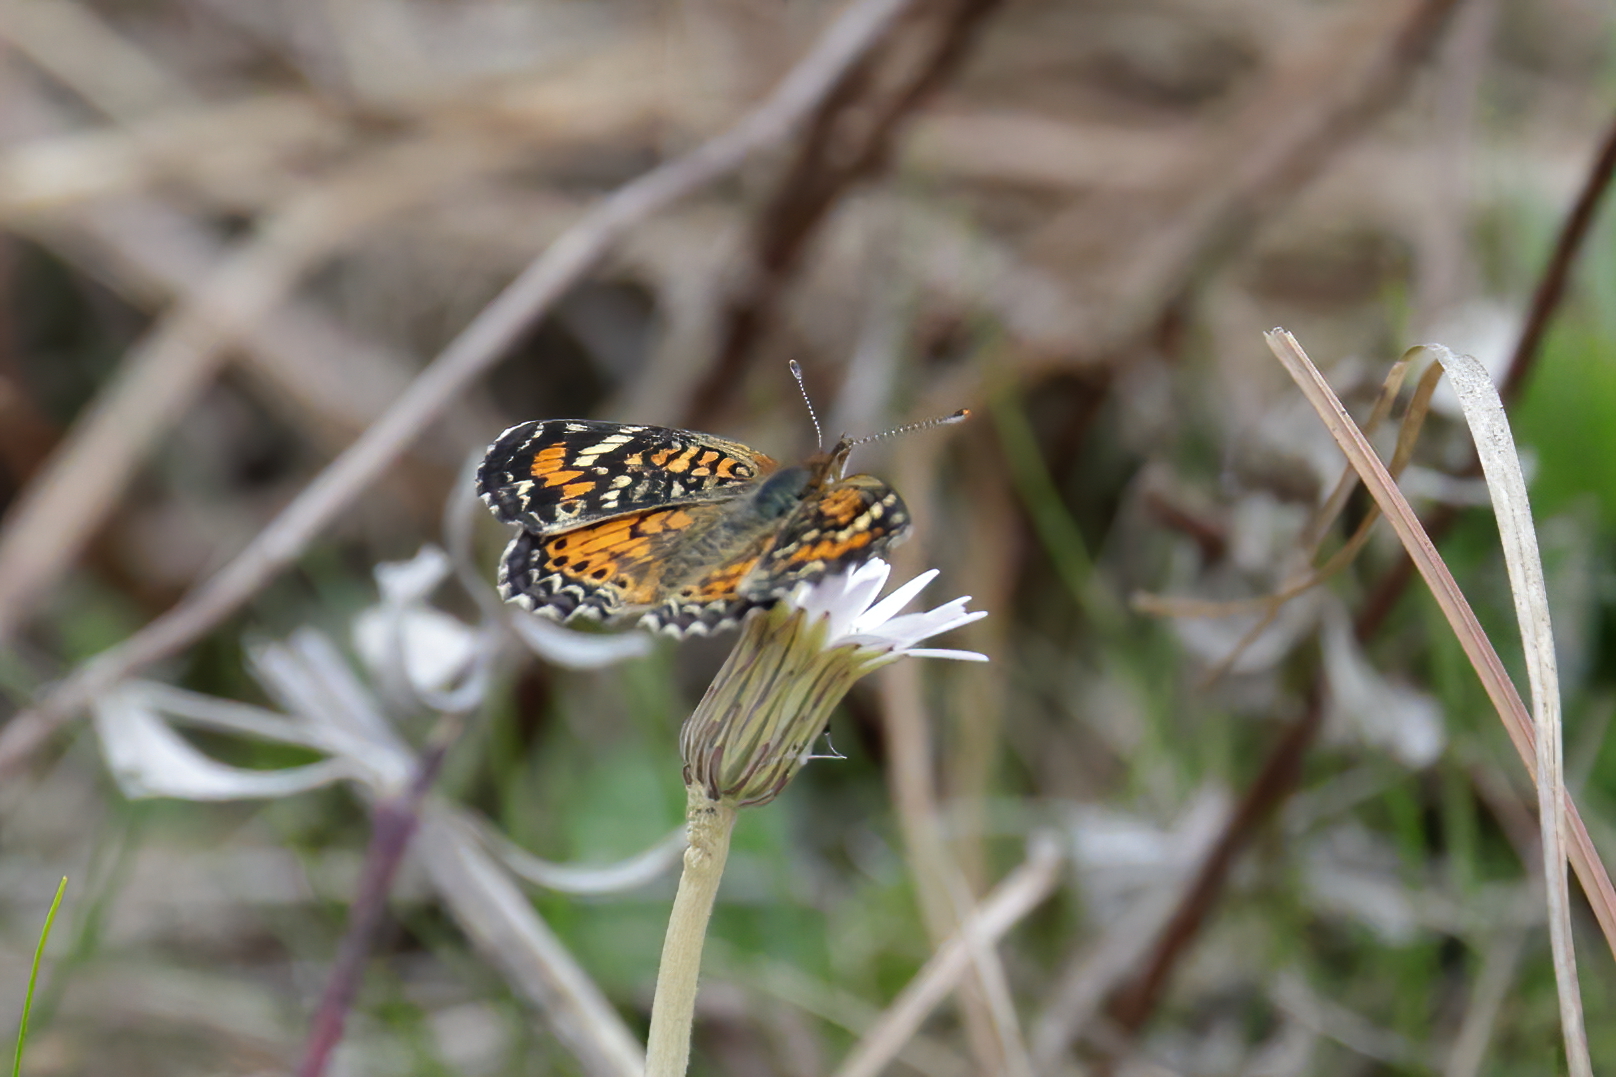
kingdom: Animalia
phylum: Arthropoda
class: Insecta
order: Lepidoptera
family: Nymphalidae
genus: Phyciodes
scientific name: Phyciodes phaon
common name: Phaon crescent
